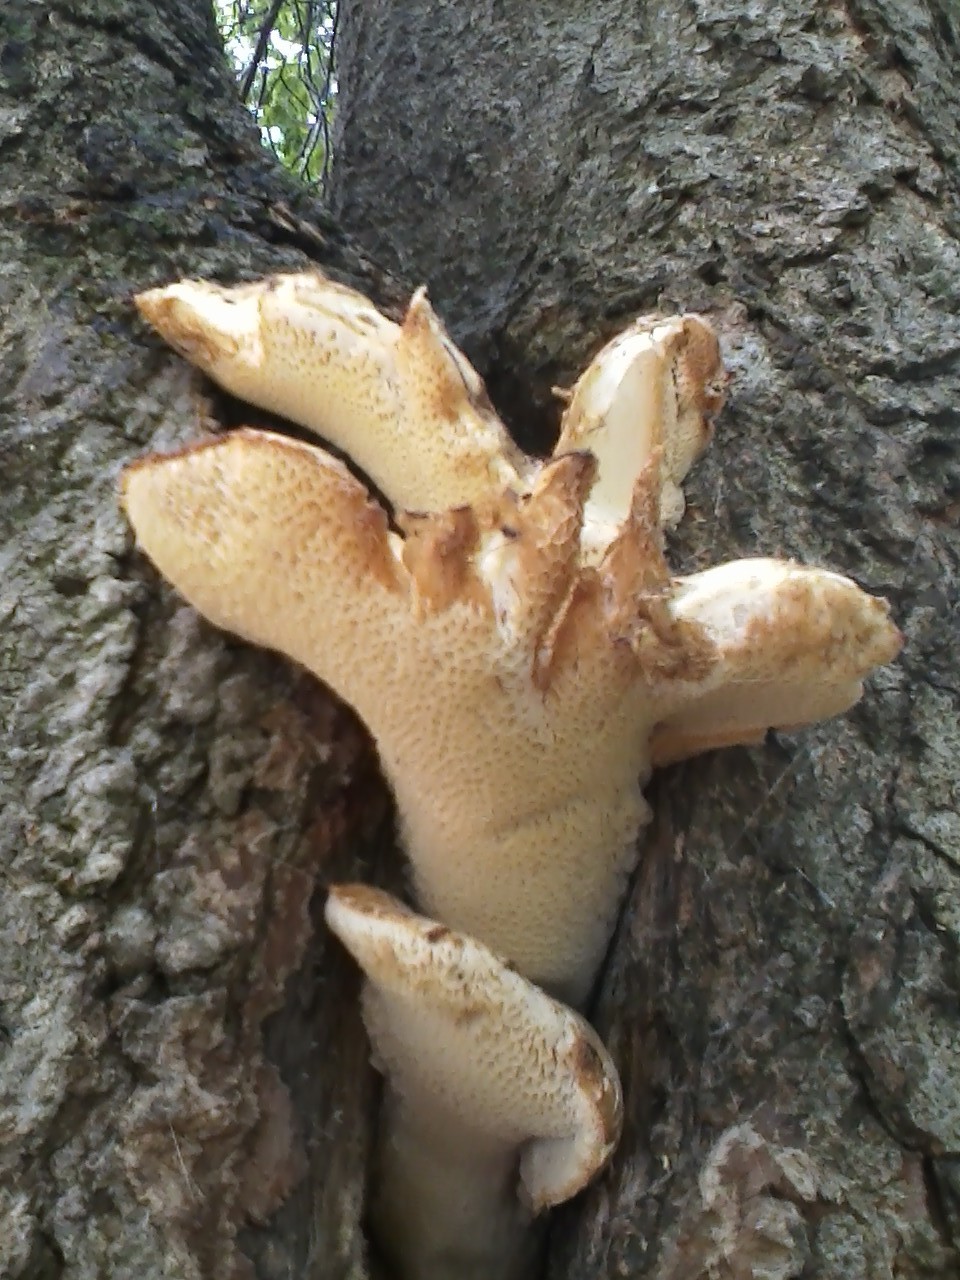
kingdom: Fungi
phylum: Basidiomycota
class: Agaricomycetes
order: Polyporales
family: Polyporaceae
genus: Cerioporus
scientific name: Cerioporus squamosus
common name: Dryad's saddle
